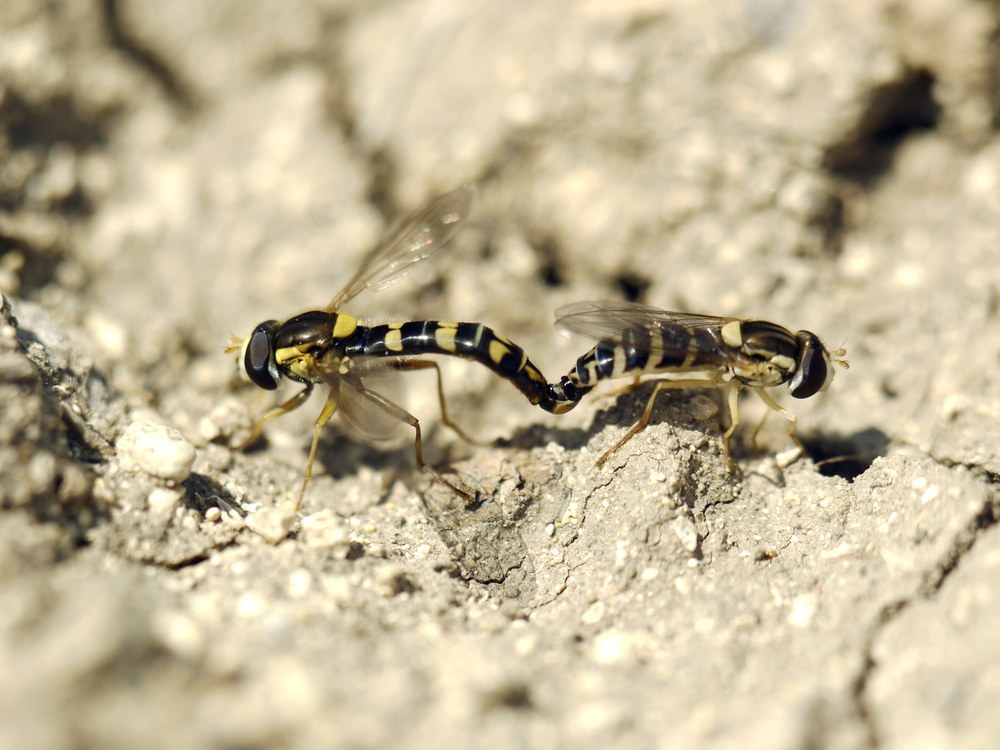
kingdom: Animalia
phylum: Arthropoda
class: Insecta
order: Diptera
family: Syrphidae
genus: Sphaerophoria
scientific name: Sphaerophoria scripta
